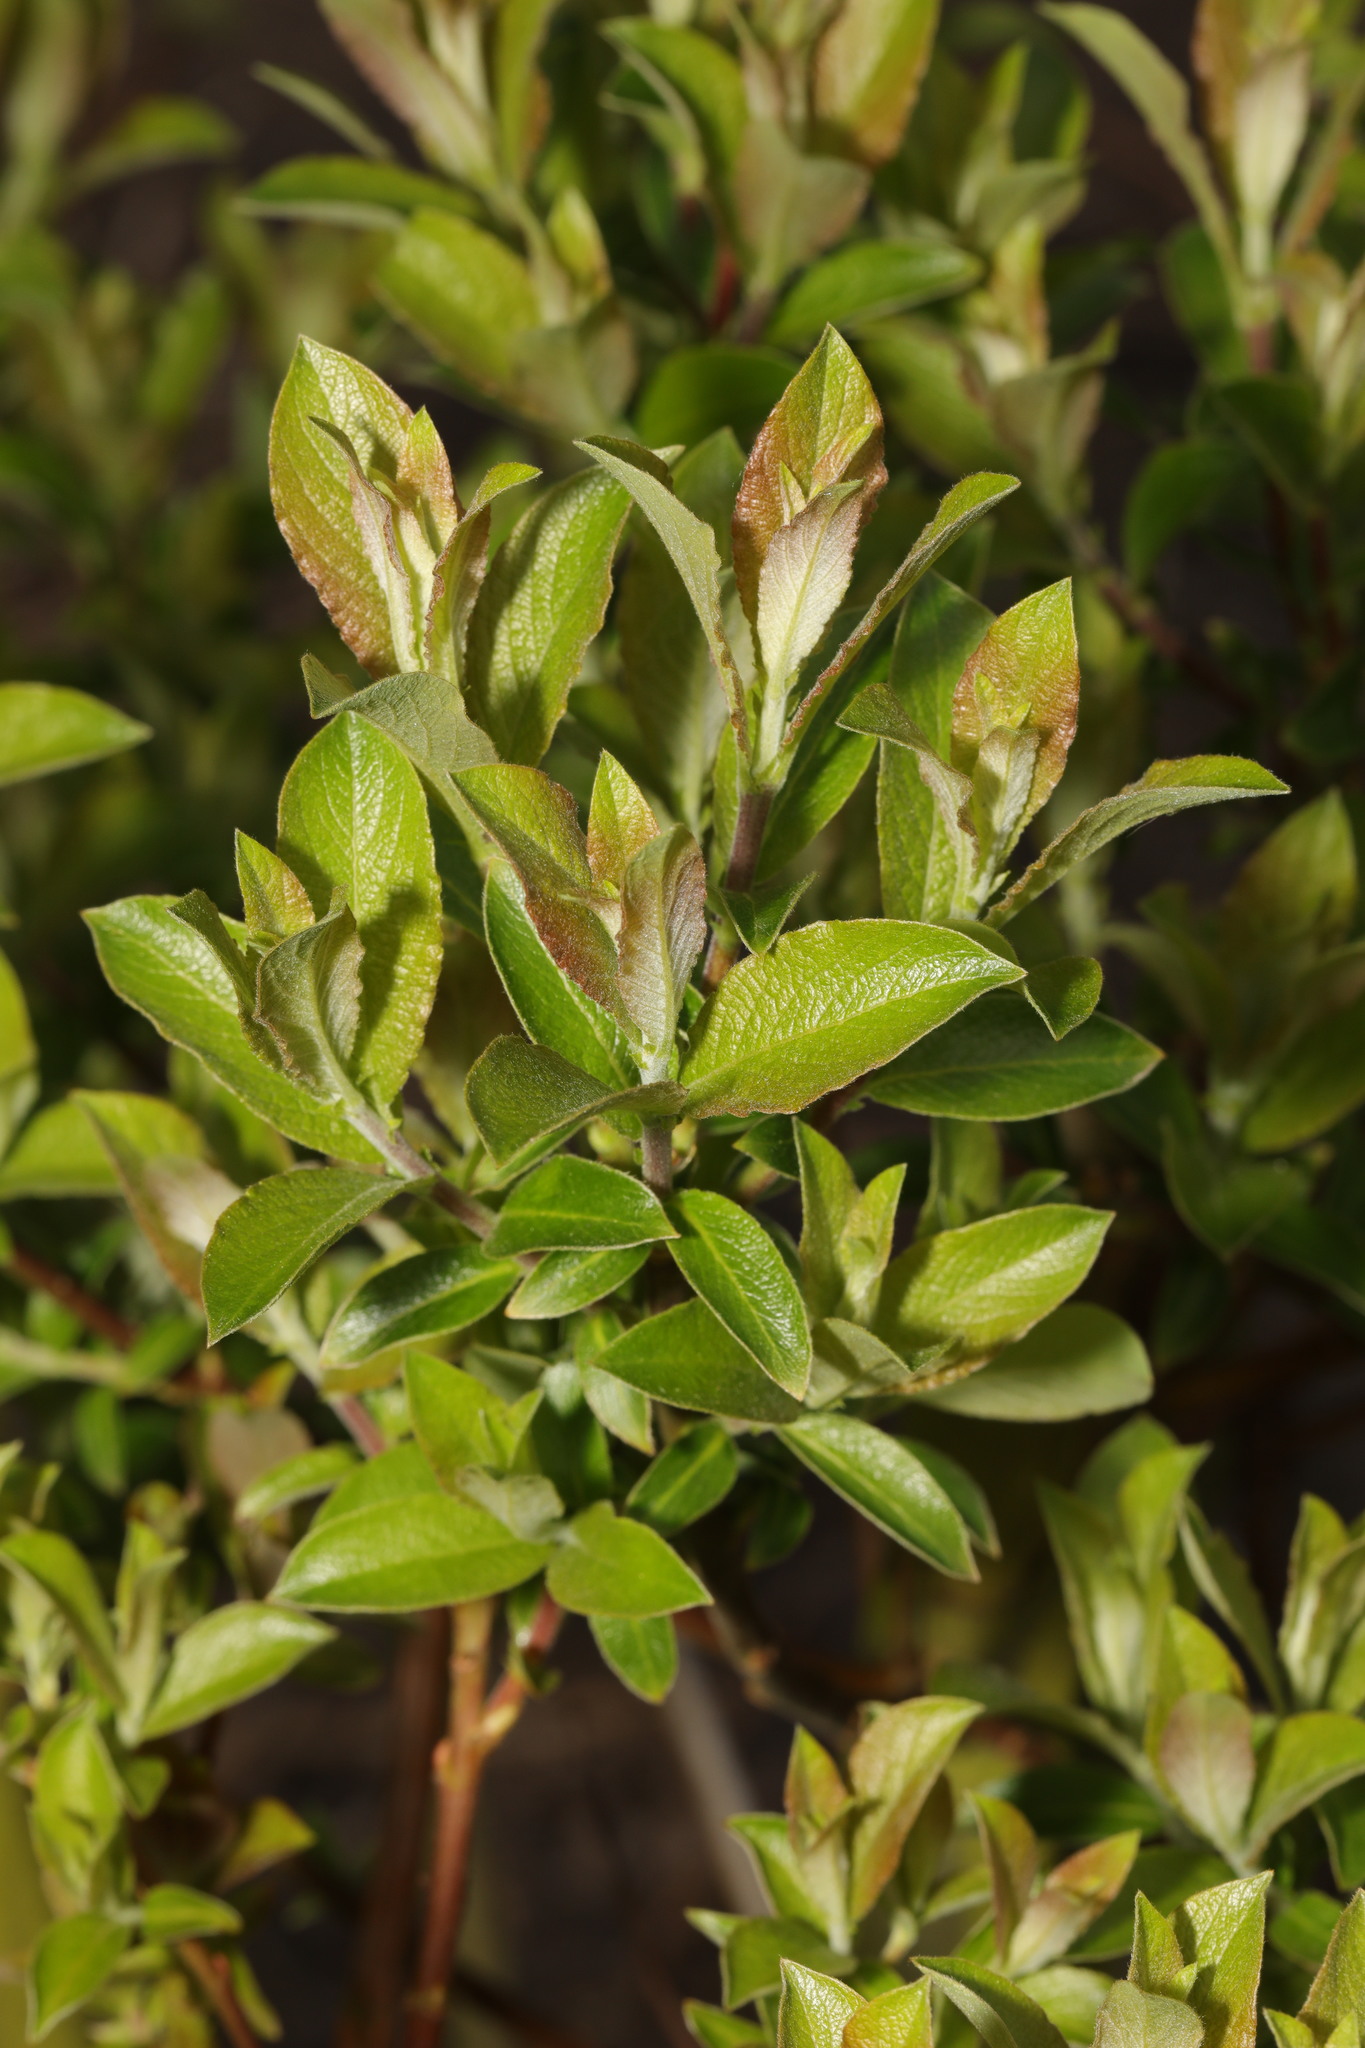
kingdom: Plantae
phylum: Tracheophyta
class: Magnoliopsida
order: Malpighiales
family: Salicaceae
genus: Salix
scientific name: Salix cinerea
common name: Common sallow
